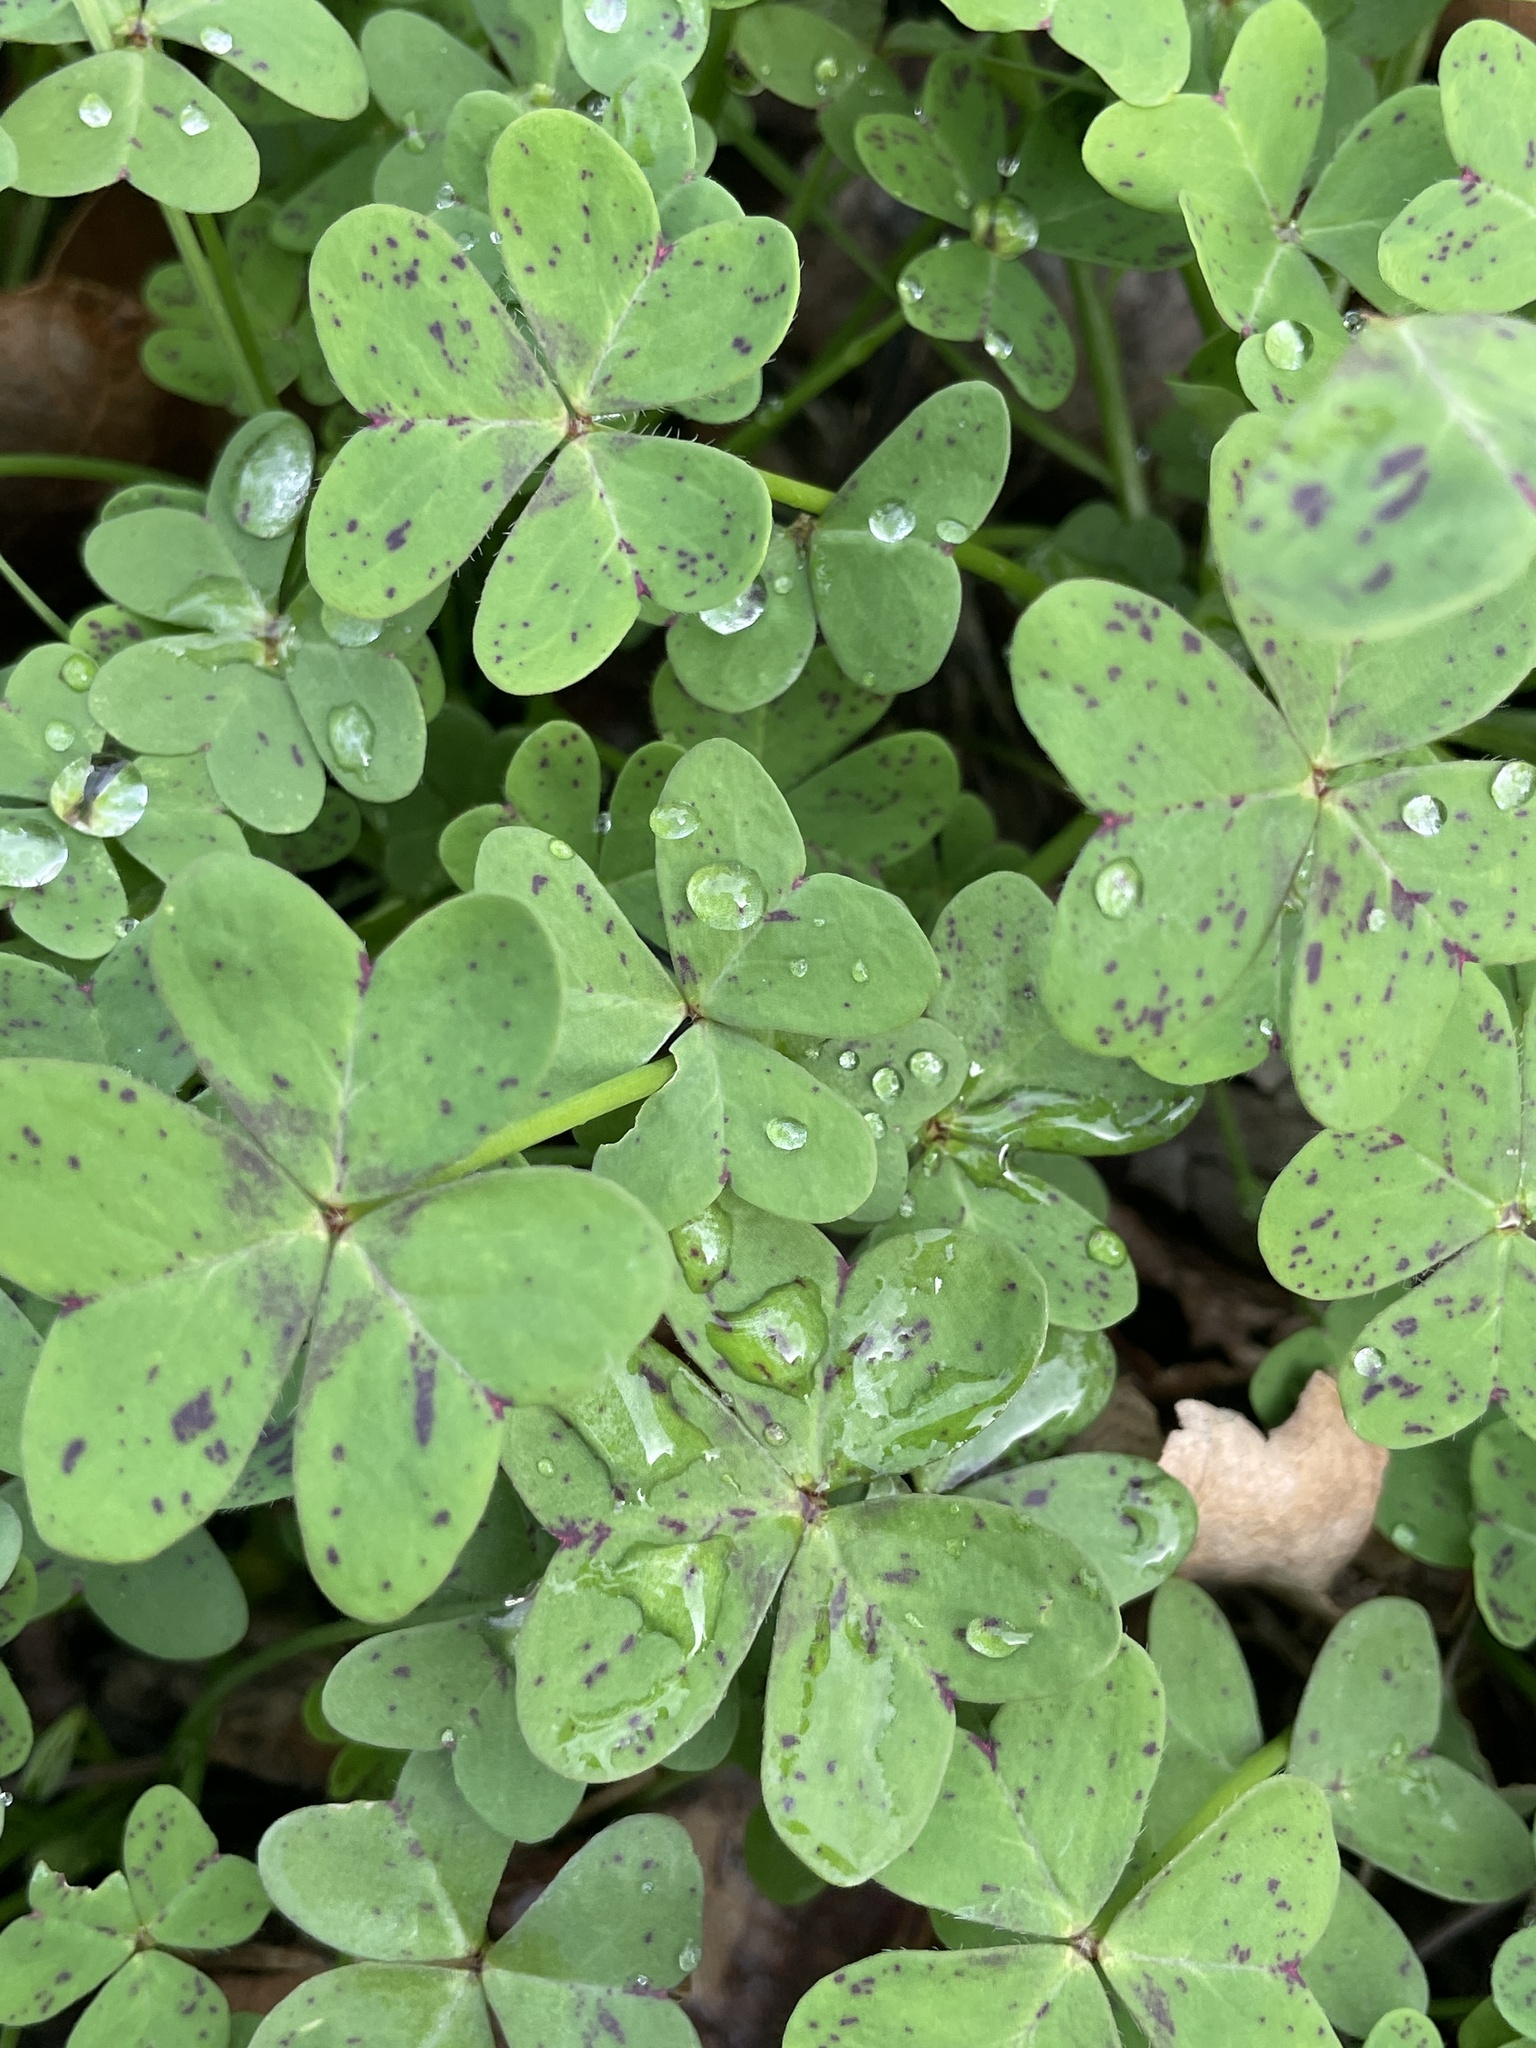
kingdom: Plantae
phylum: Tracheophyta
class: Magnoliopsida
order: Oxalidales
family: Oxalidaceae
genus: Oxalis
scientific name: Oxalis pes-caprae
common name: Bermuda-buttercup
